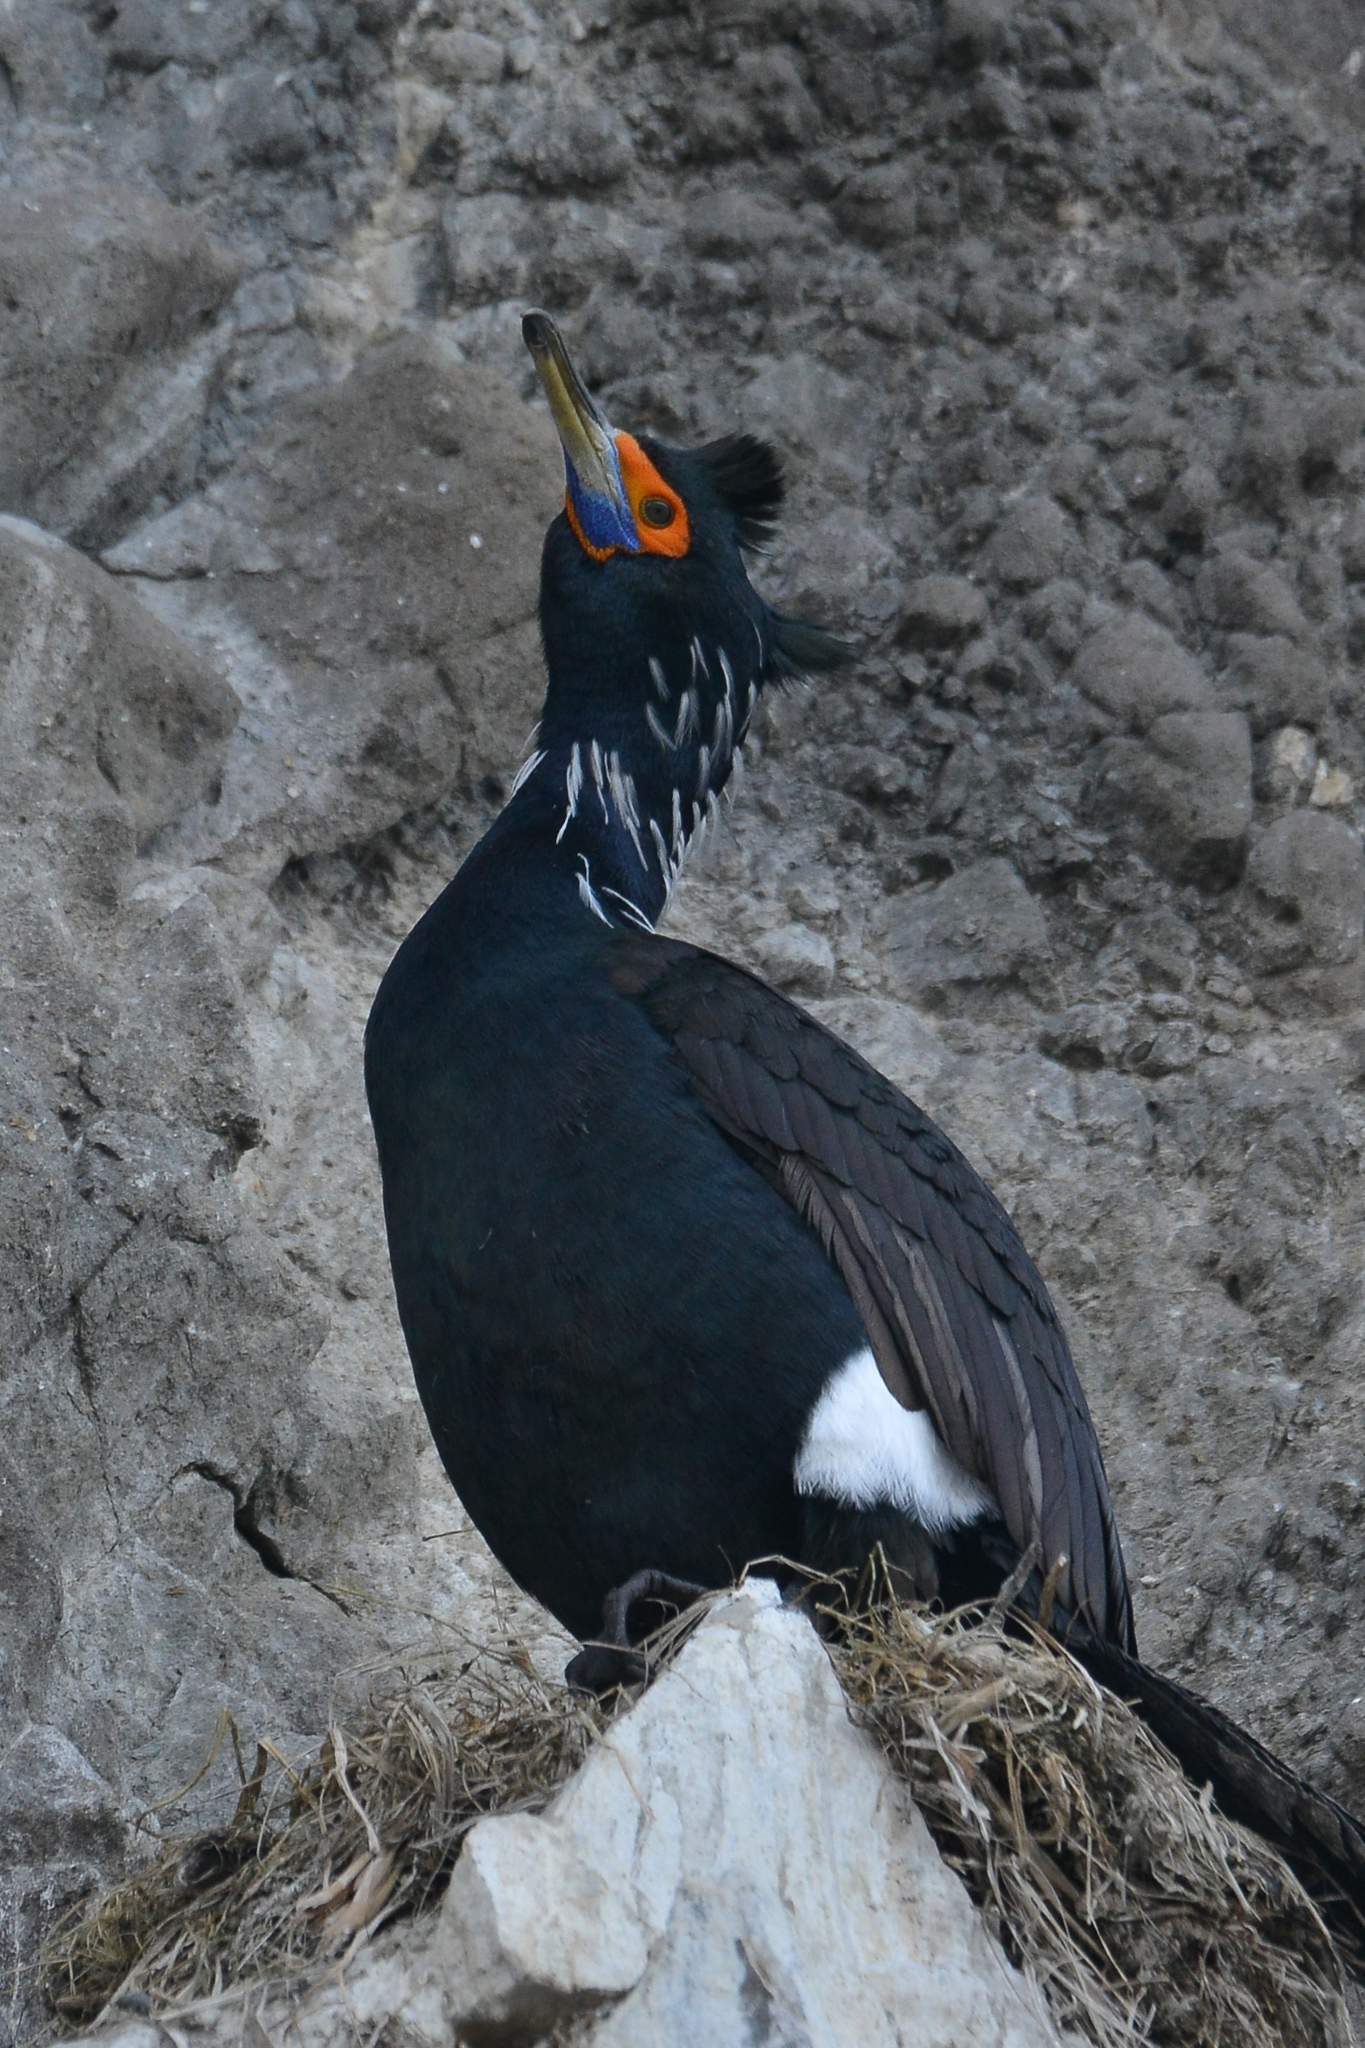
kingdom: Animalia
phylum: Chordata
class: Aves
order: Suliformes
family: Phalacrocoracidae
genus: Phalacrocorax
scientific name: Phalacrocorax urile
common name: Red-faced cormorant
